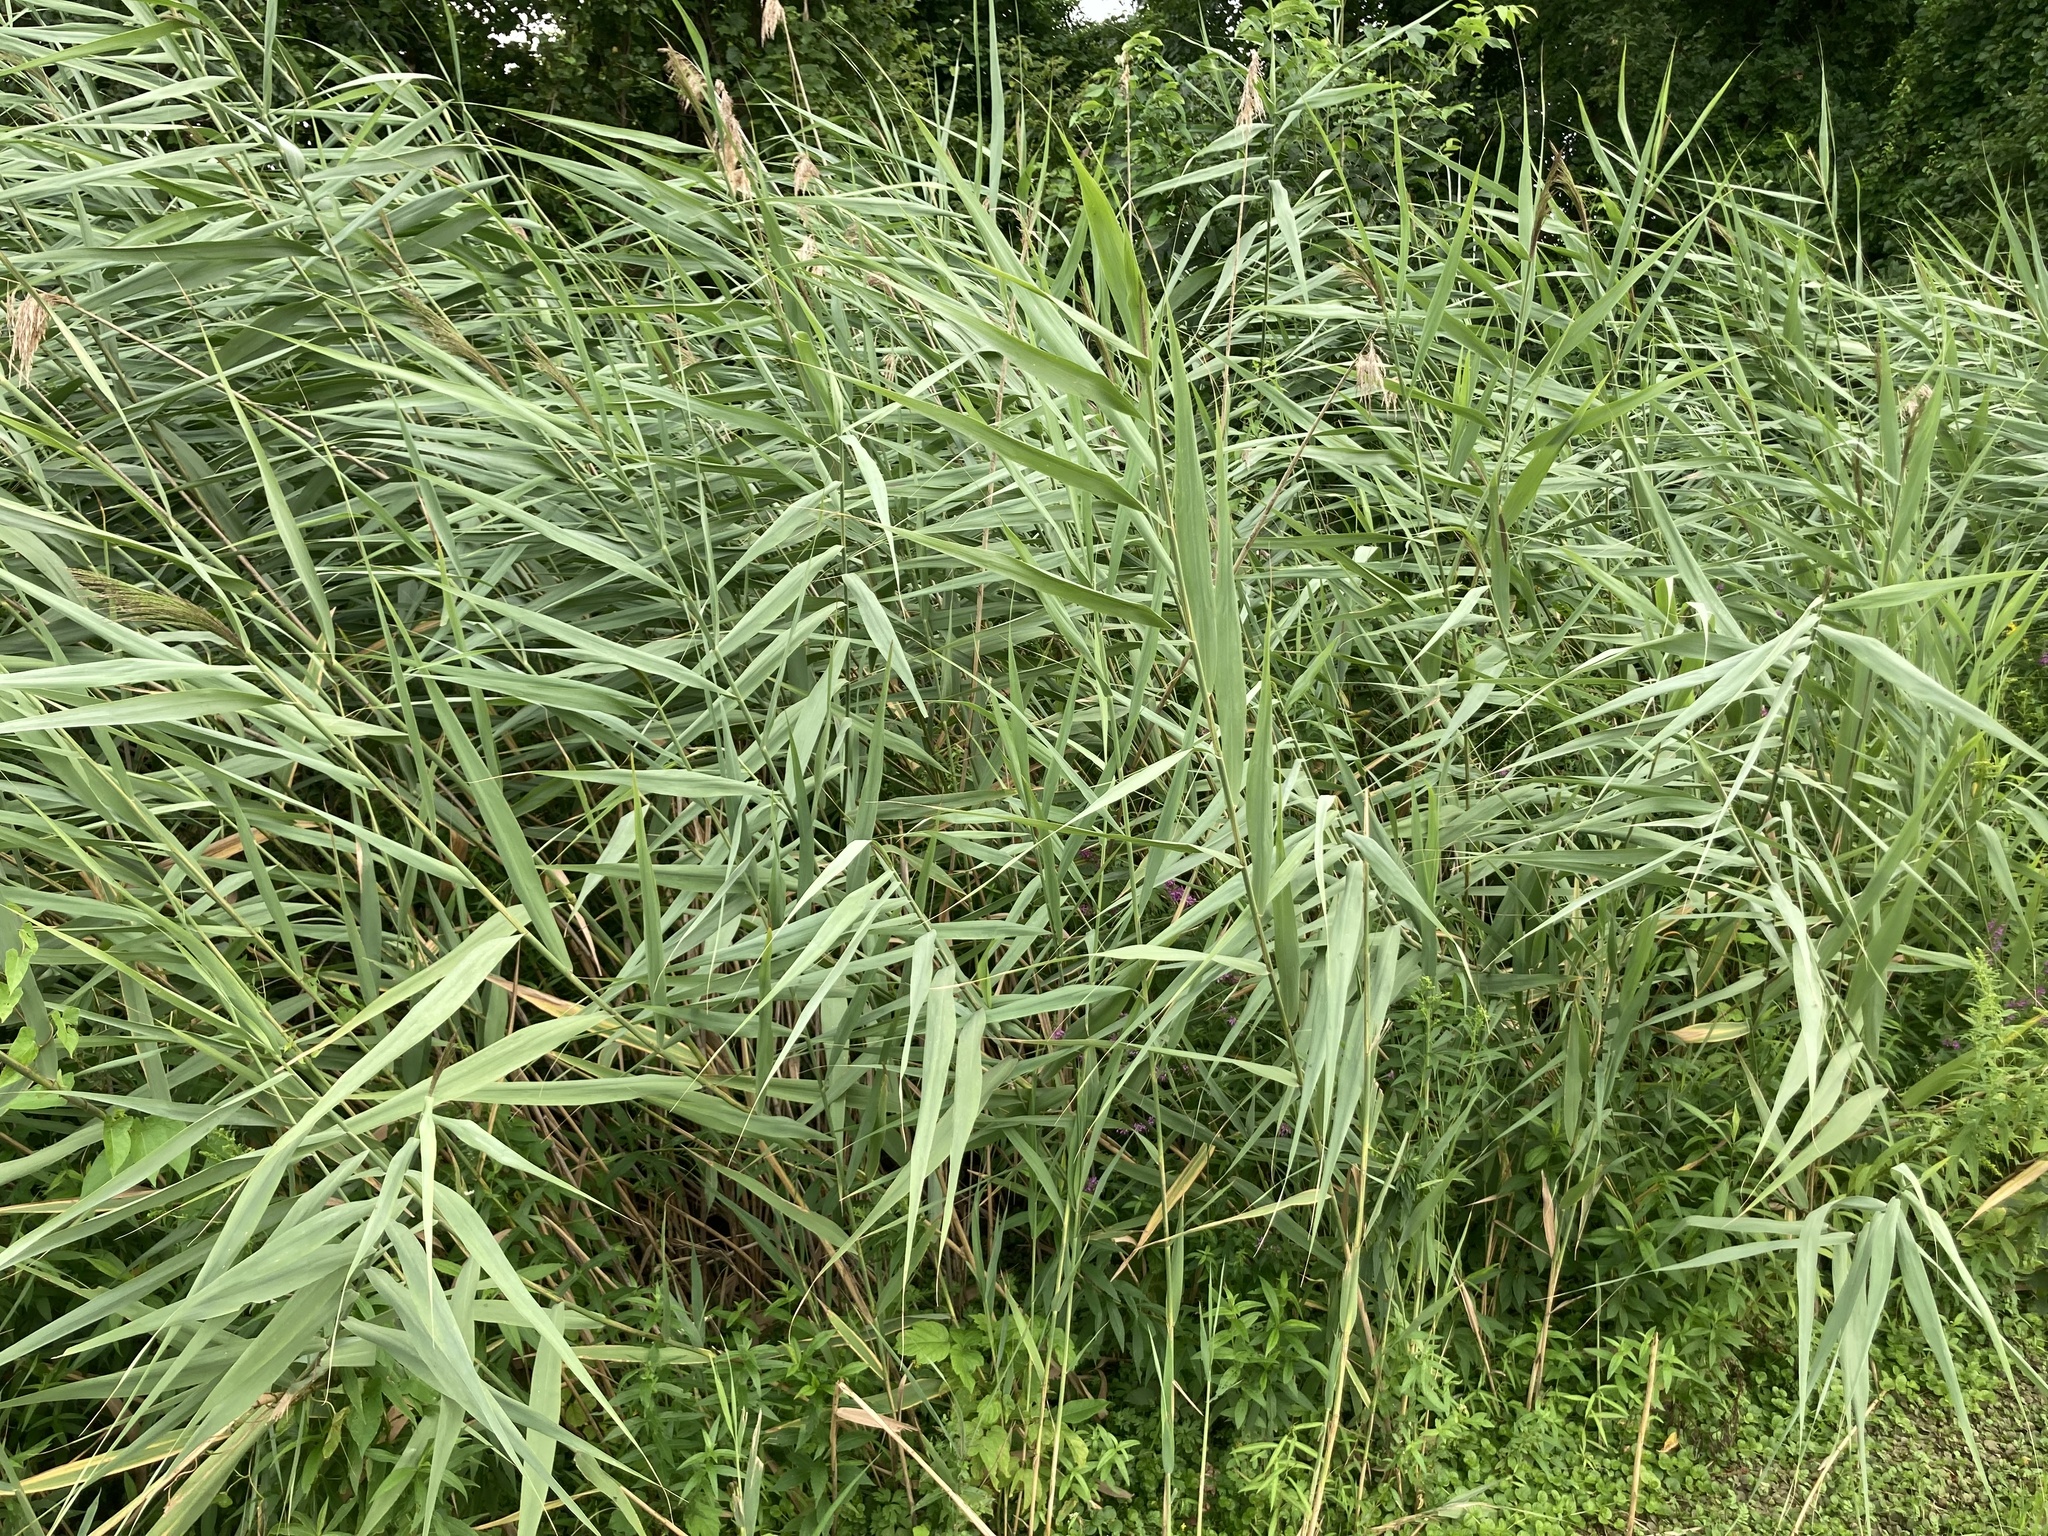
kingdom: Plantae
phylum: Tracheophyta
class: Liliopsida
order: Poales
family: Poaceae
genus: Phragmites
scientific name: Phragmites australis
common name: Common reed
